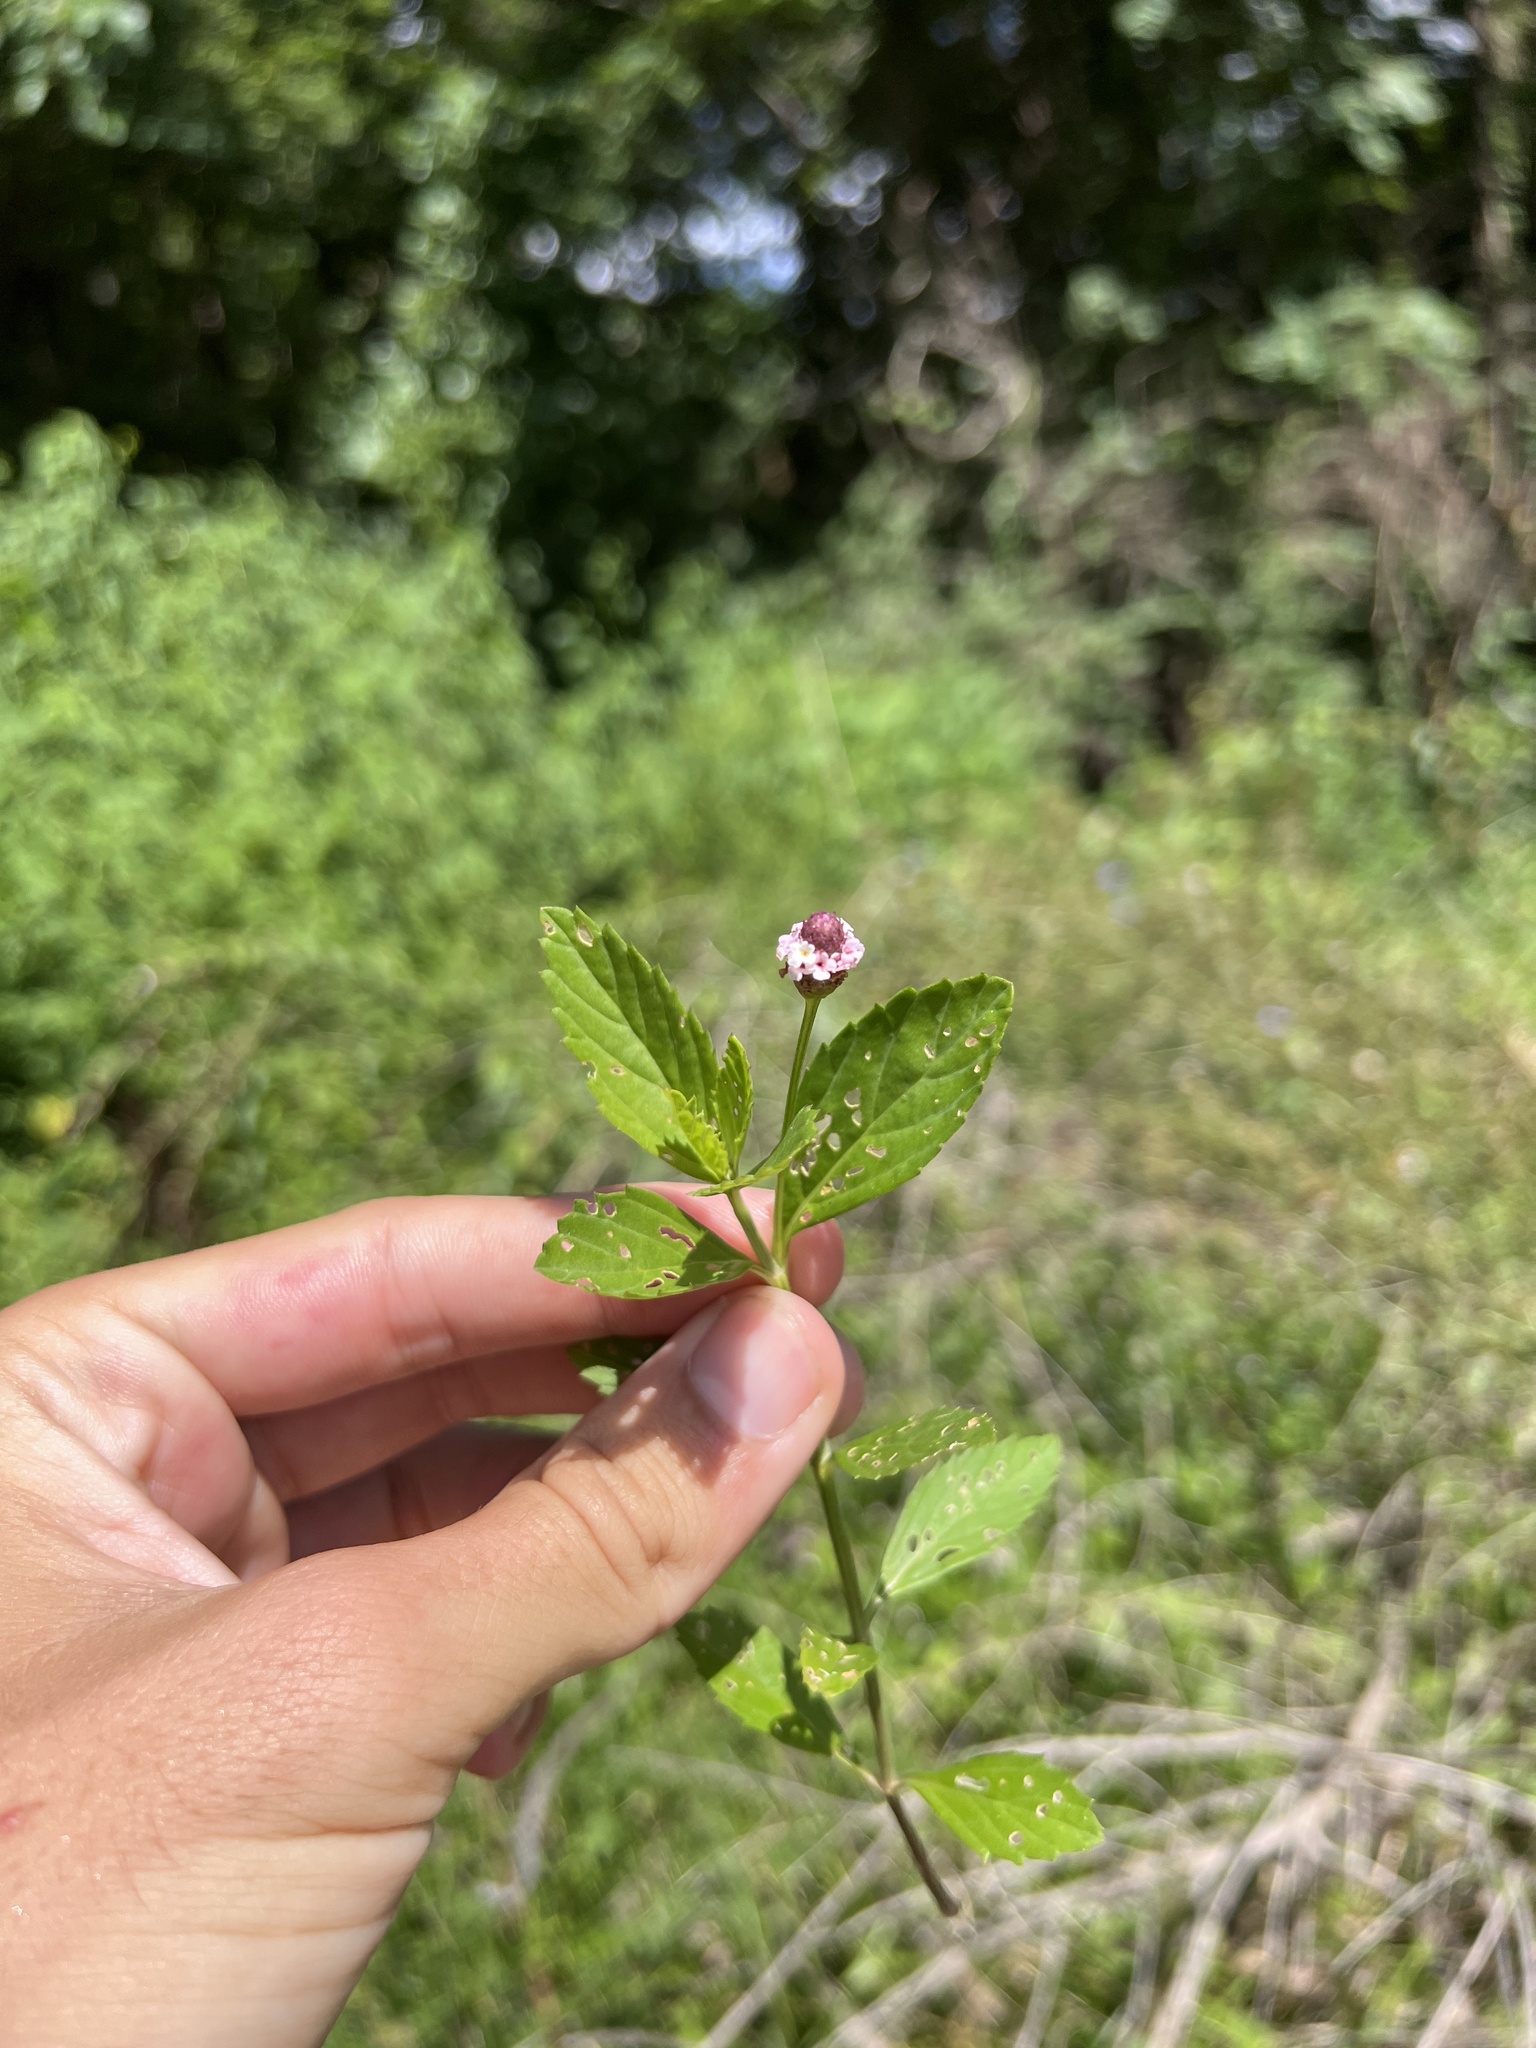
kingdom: Plantae
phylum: Tracheophyta
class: Magnoliopsida
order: Lamiales
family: Verbenaceae
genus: Phyla
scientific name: Phyla lanceolata
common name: Northern fogfruit
